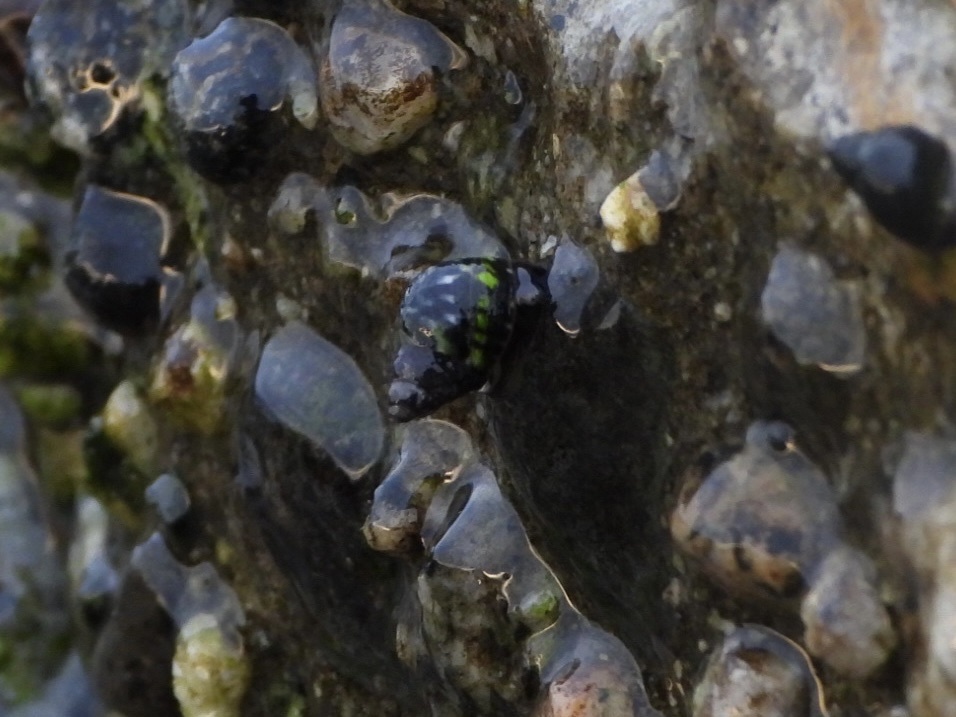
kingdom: Animalia
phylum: Mollusca
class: Gastropoda
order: Littorinimorpha
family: Littorinidae
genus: Littorina
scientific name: Littorina scutulata
